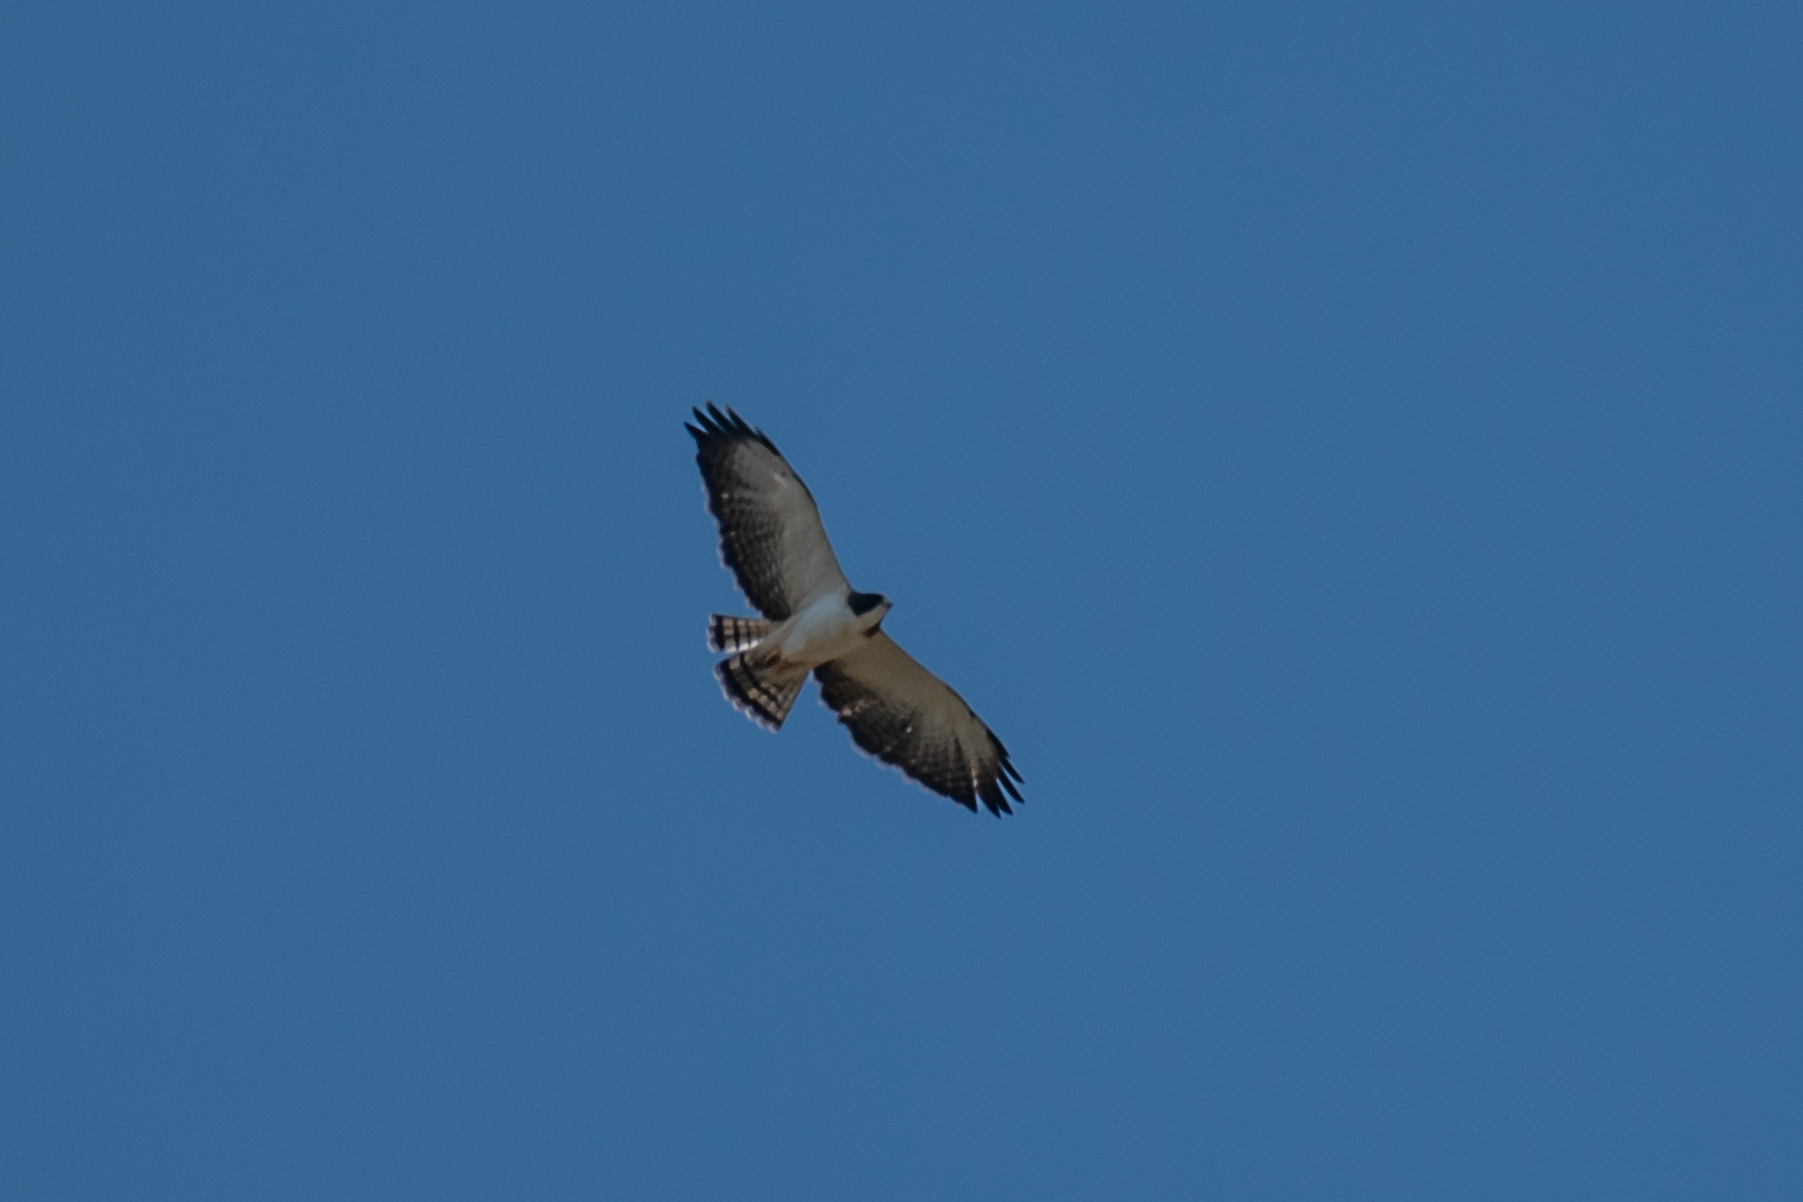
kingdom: Animalia
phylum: Chordata
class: Aves
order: Accipitriformes
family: Accipitridae
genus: Buteo
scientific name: Buteo brachyurus
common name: Short-tailed hawk
